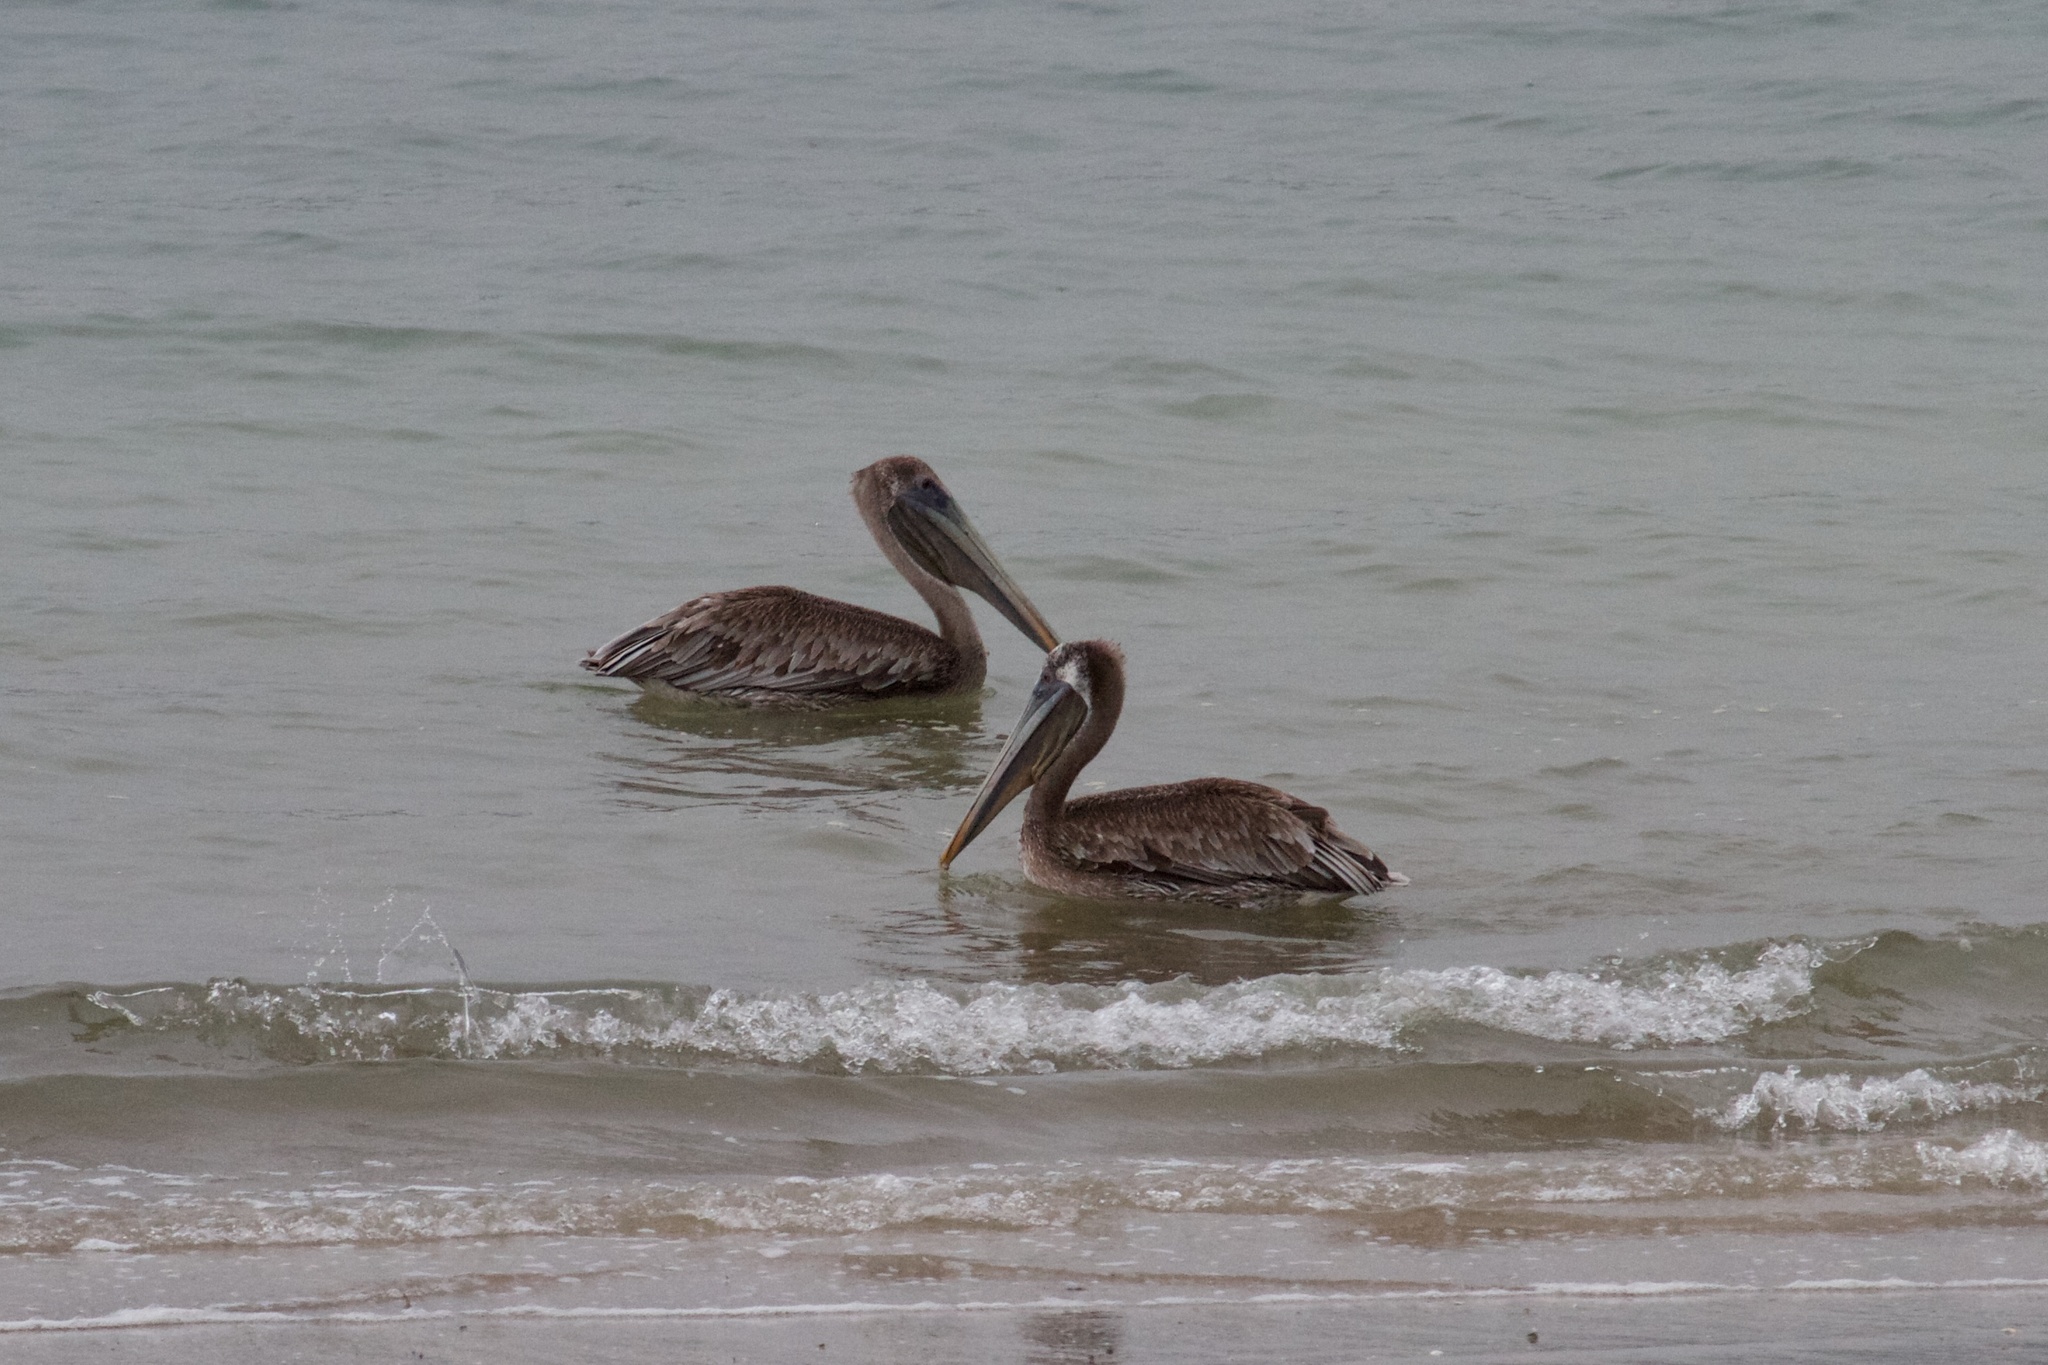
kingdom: Animalia
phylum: Chordata
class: Aves
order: Pelecaniformes
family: Pelecanidae
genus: Pelecanus
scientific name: Pelecanus occidentalis
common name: Brown pelican
